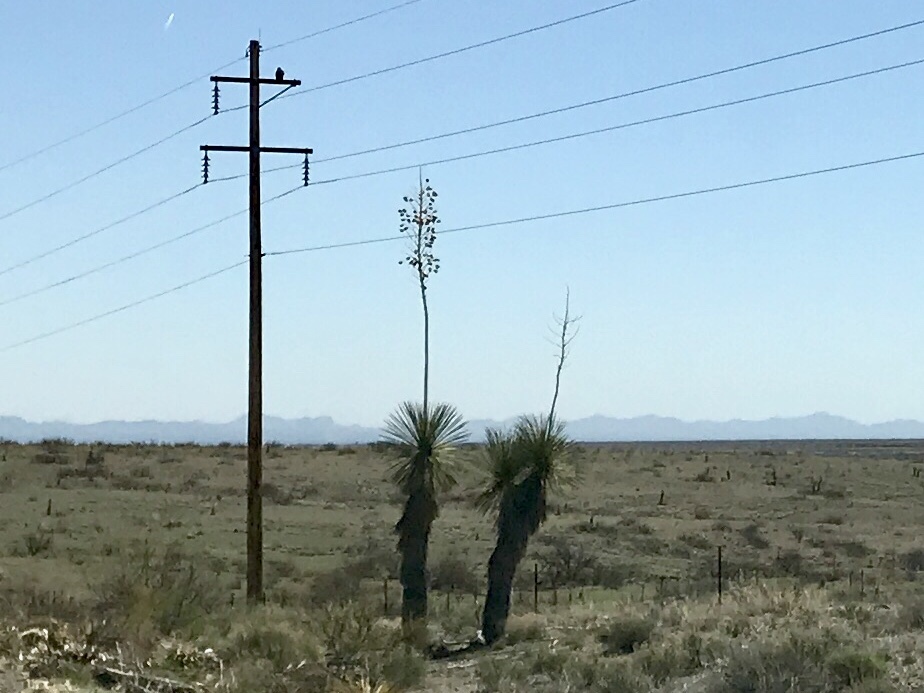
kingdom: Plantae
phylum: Tracheophyta
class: Liliopsida
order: Asparagales
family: Asparagaceae
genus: Yucca
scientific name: Yucca elata
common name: Palmella
